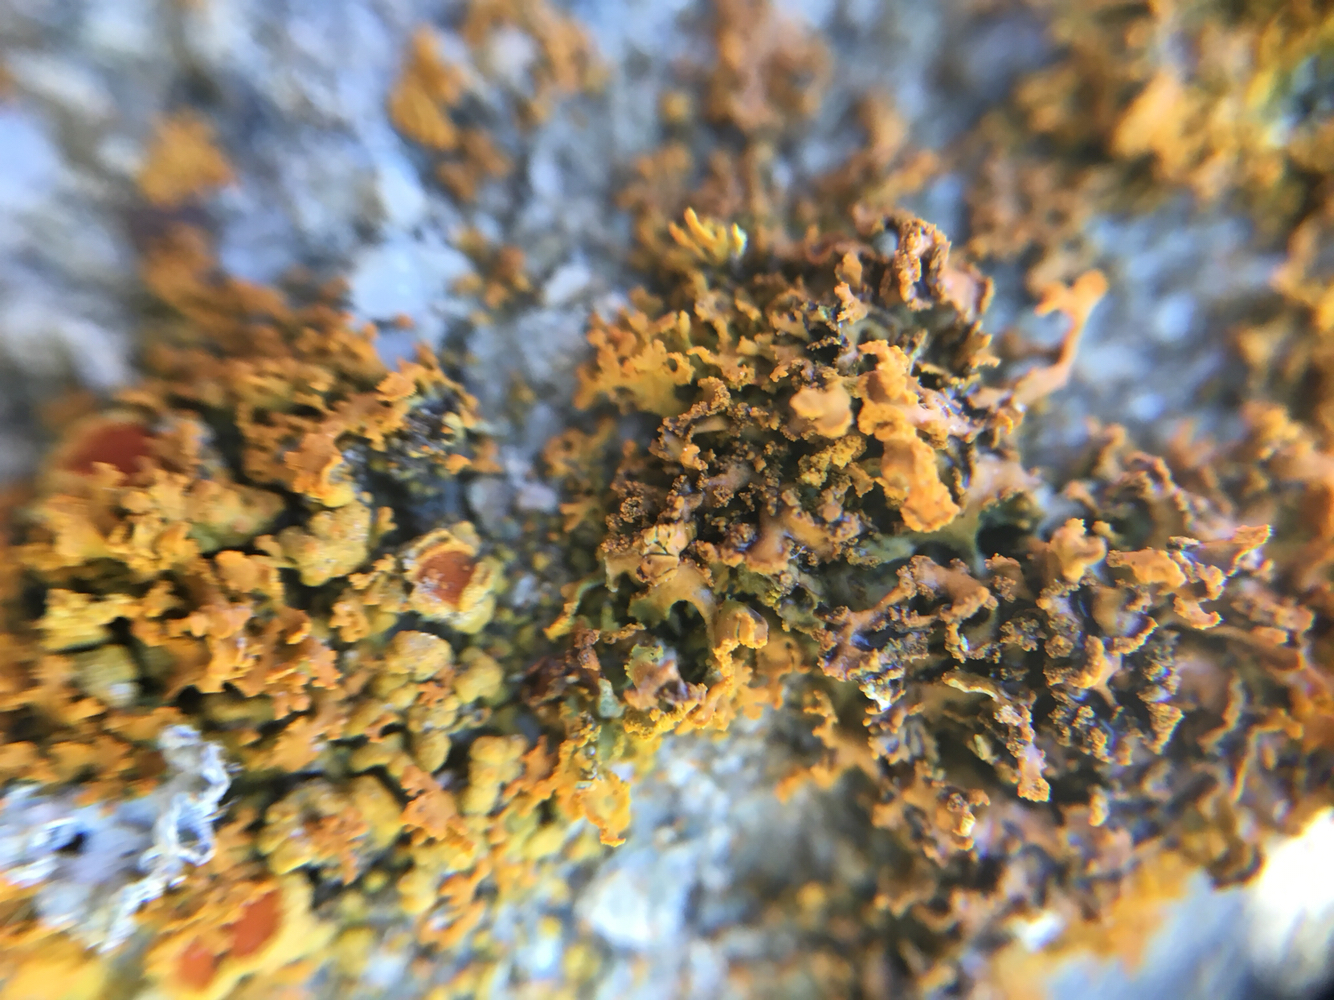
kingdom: Fungi
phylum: Ascomycota
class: Lecanoromycetes
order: Teloschistales
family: Teloschistaceae
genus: Polycauliona
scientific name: Polycauliona candelaria
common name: Shrubby sunburst lichen
